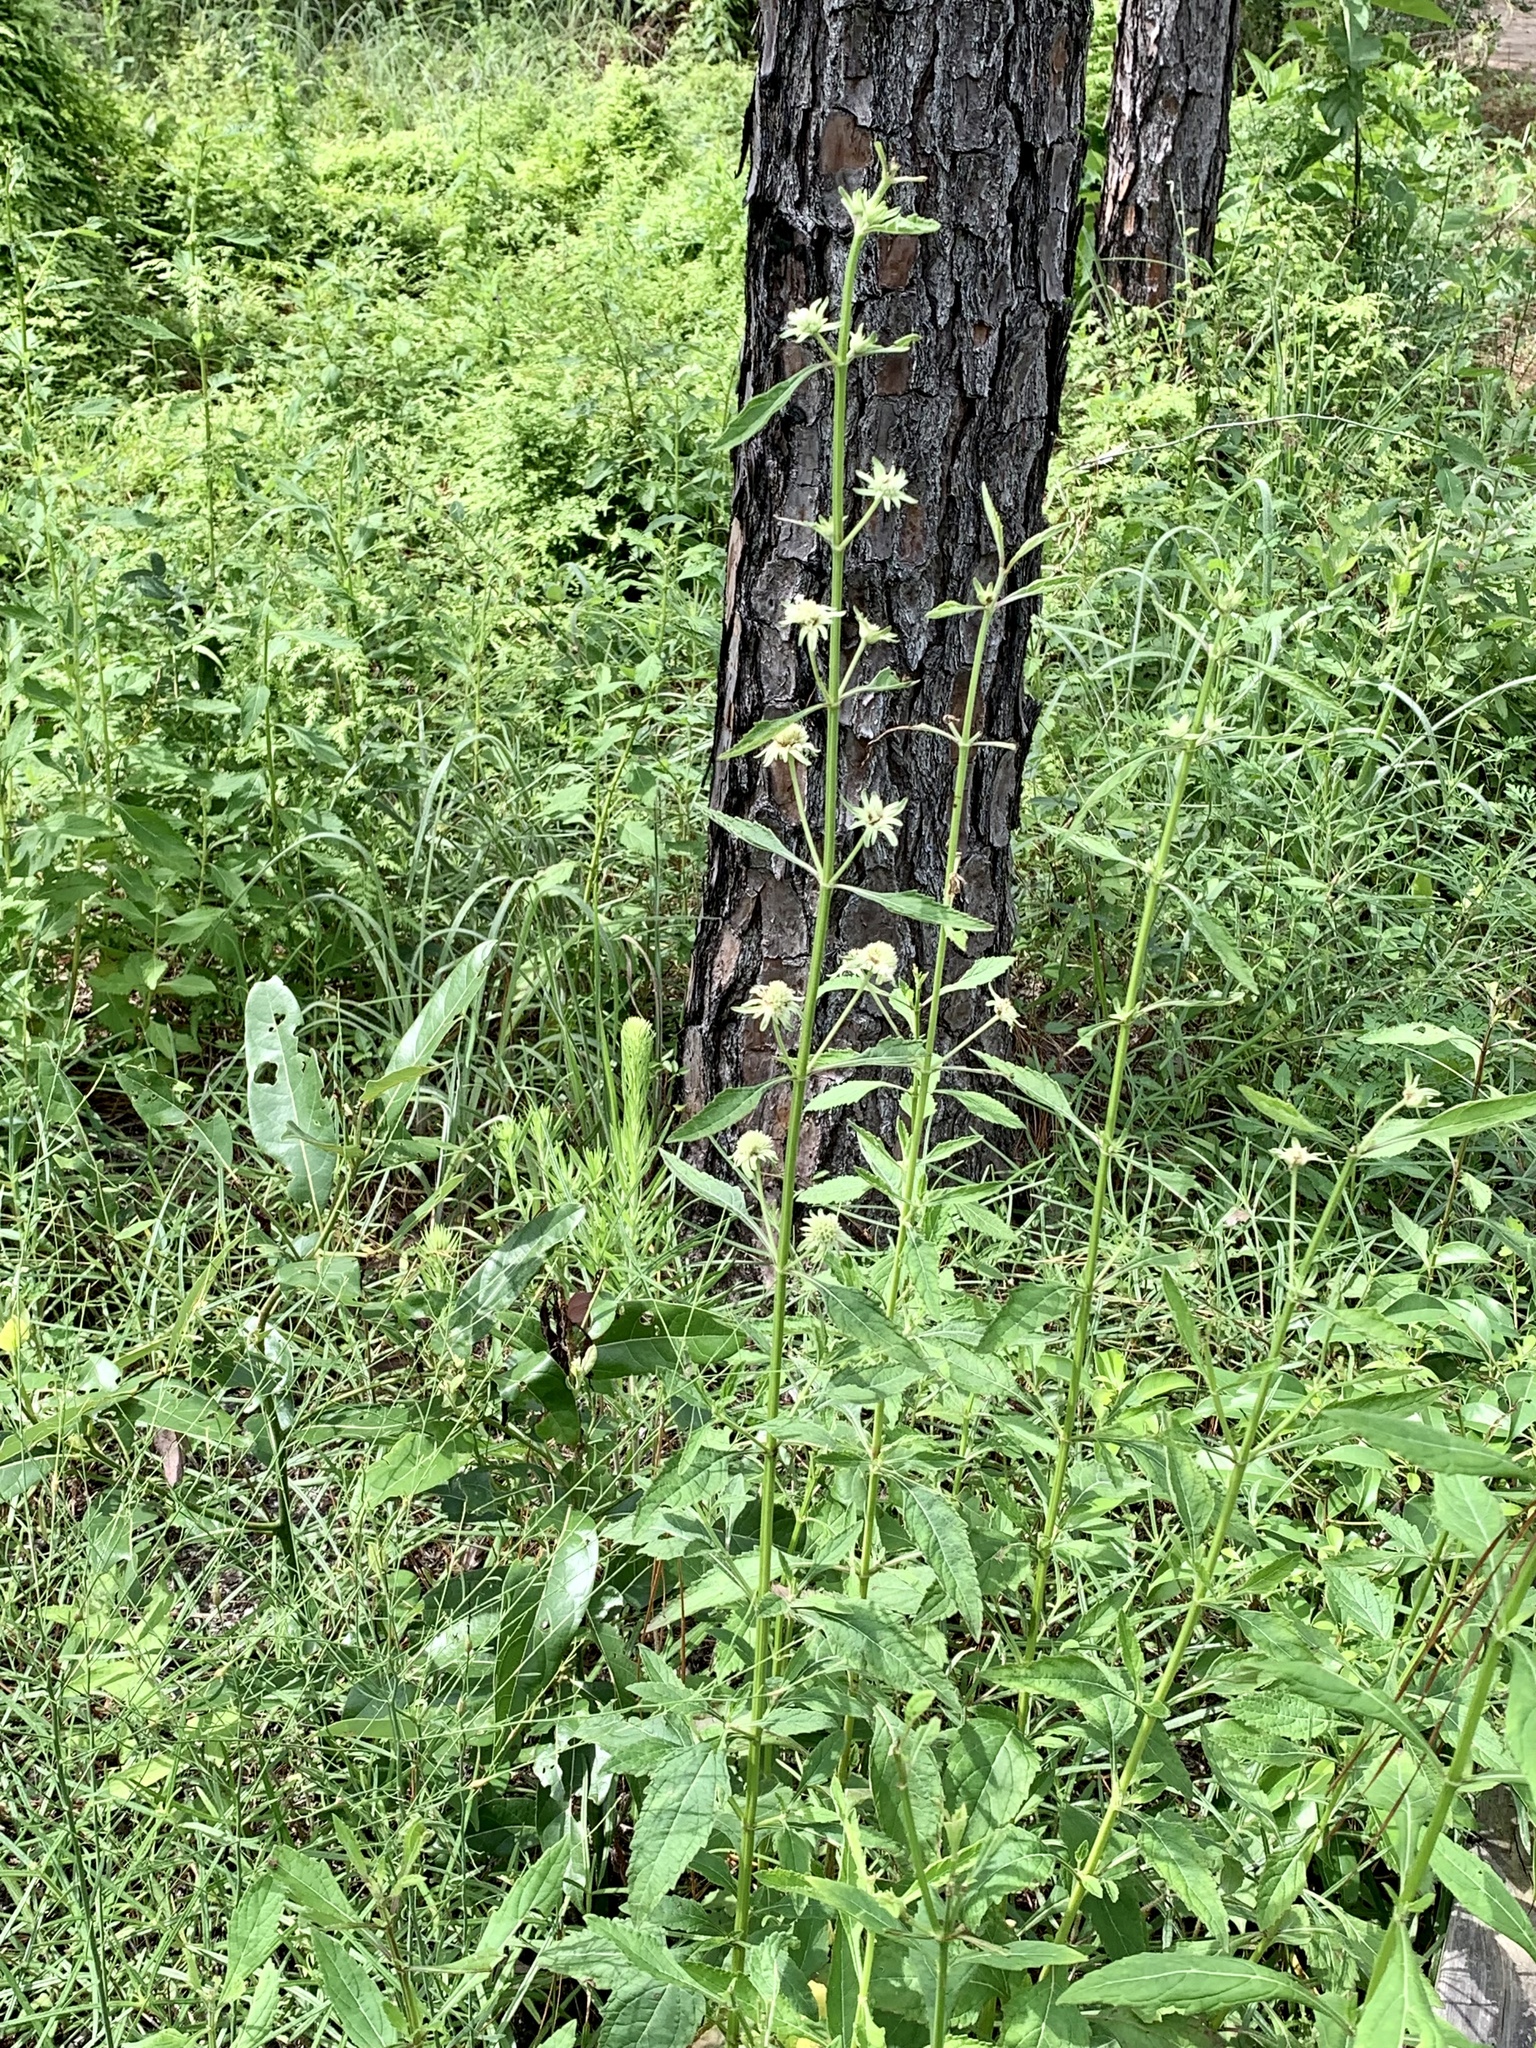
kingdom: Plantae
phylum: Tracheophyta
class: Magnoliopsida
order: Lamiales
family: Lamiaceae
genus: Hyptis
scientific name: Hyptis alata
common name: Cluster bush-mint
